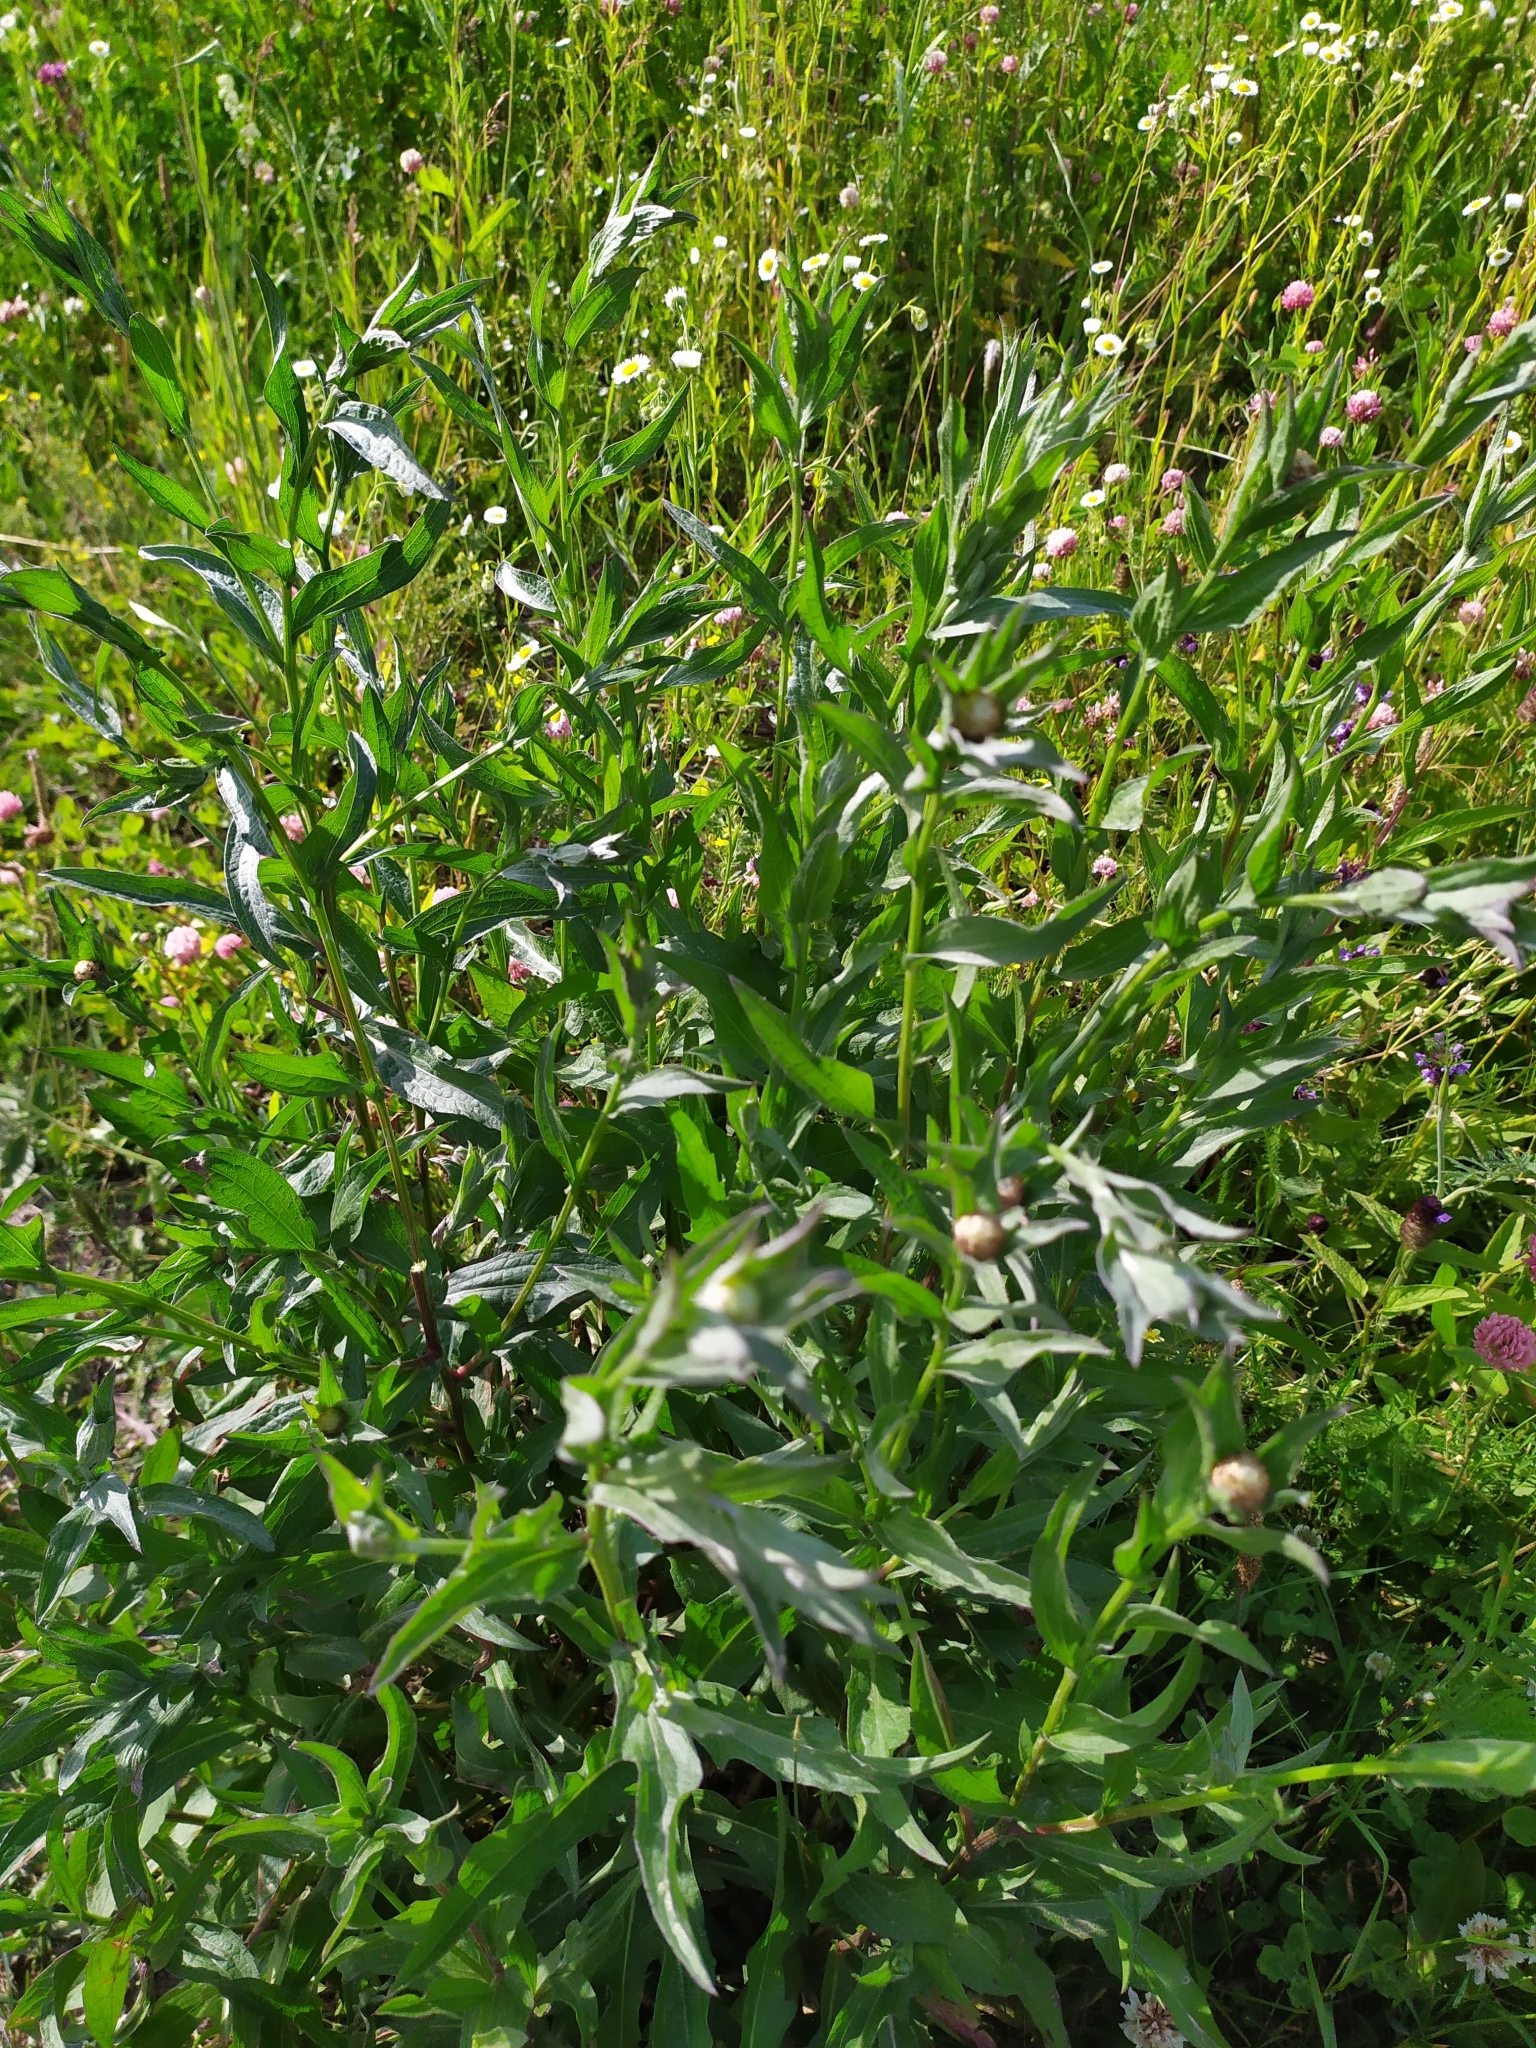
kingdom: Plantae
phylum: Tracheophyta
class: Magnoliopsida
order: Asterales
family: Asteraceae
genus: Centaurea
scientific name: Centaurea jacea
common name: Brown knapweed
